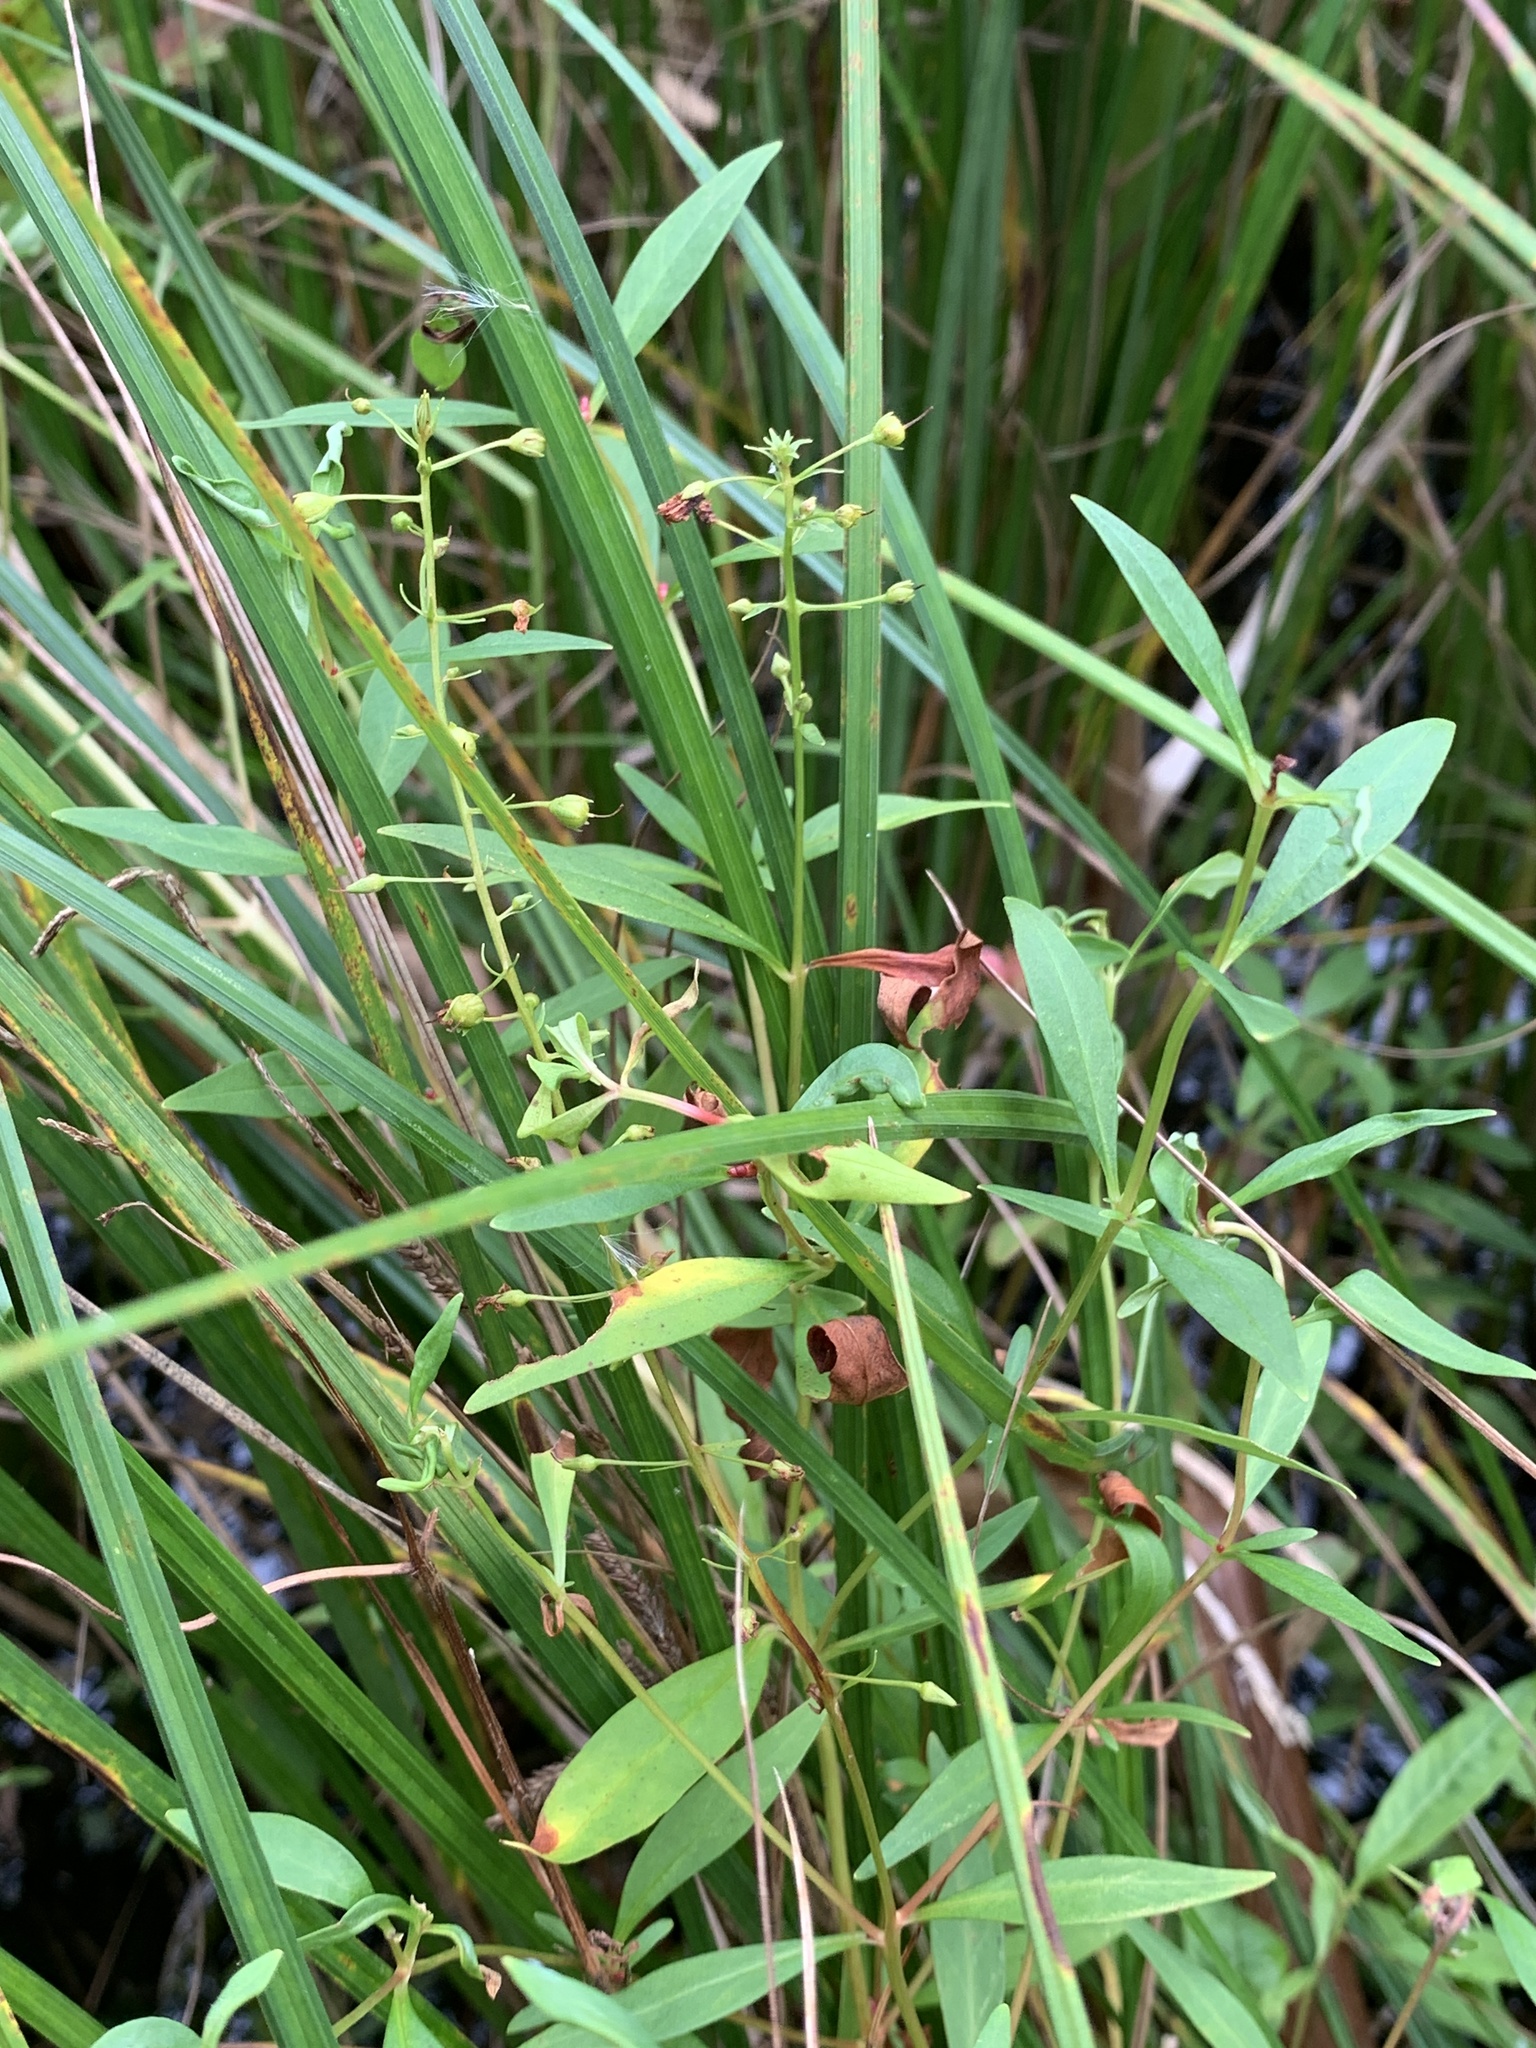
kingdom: Plantae
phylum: Tracheophyta
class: Magnoliopsida
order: Ericales
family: Primulaceae
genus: Lysimachia
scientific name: Lysimachia terrestris
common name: Lake loosestrife
